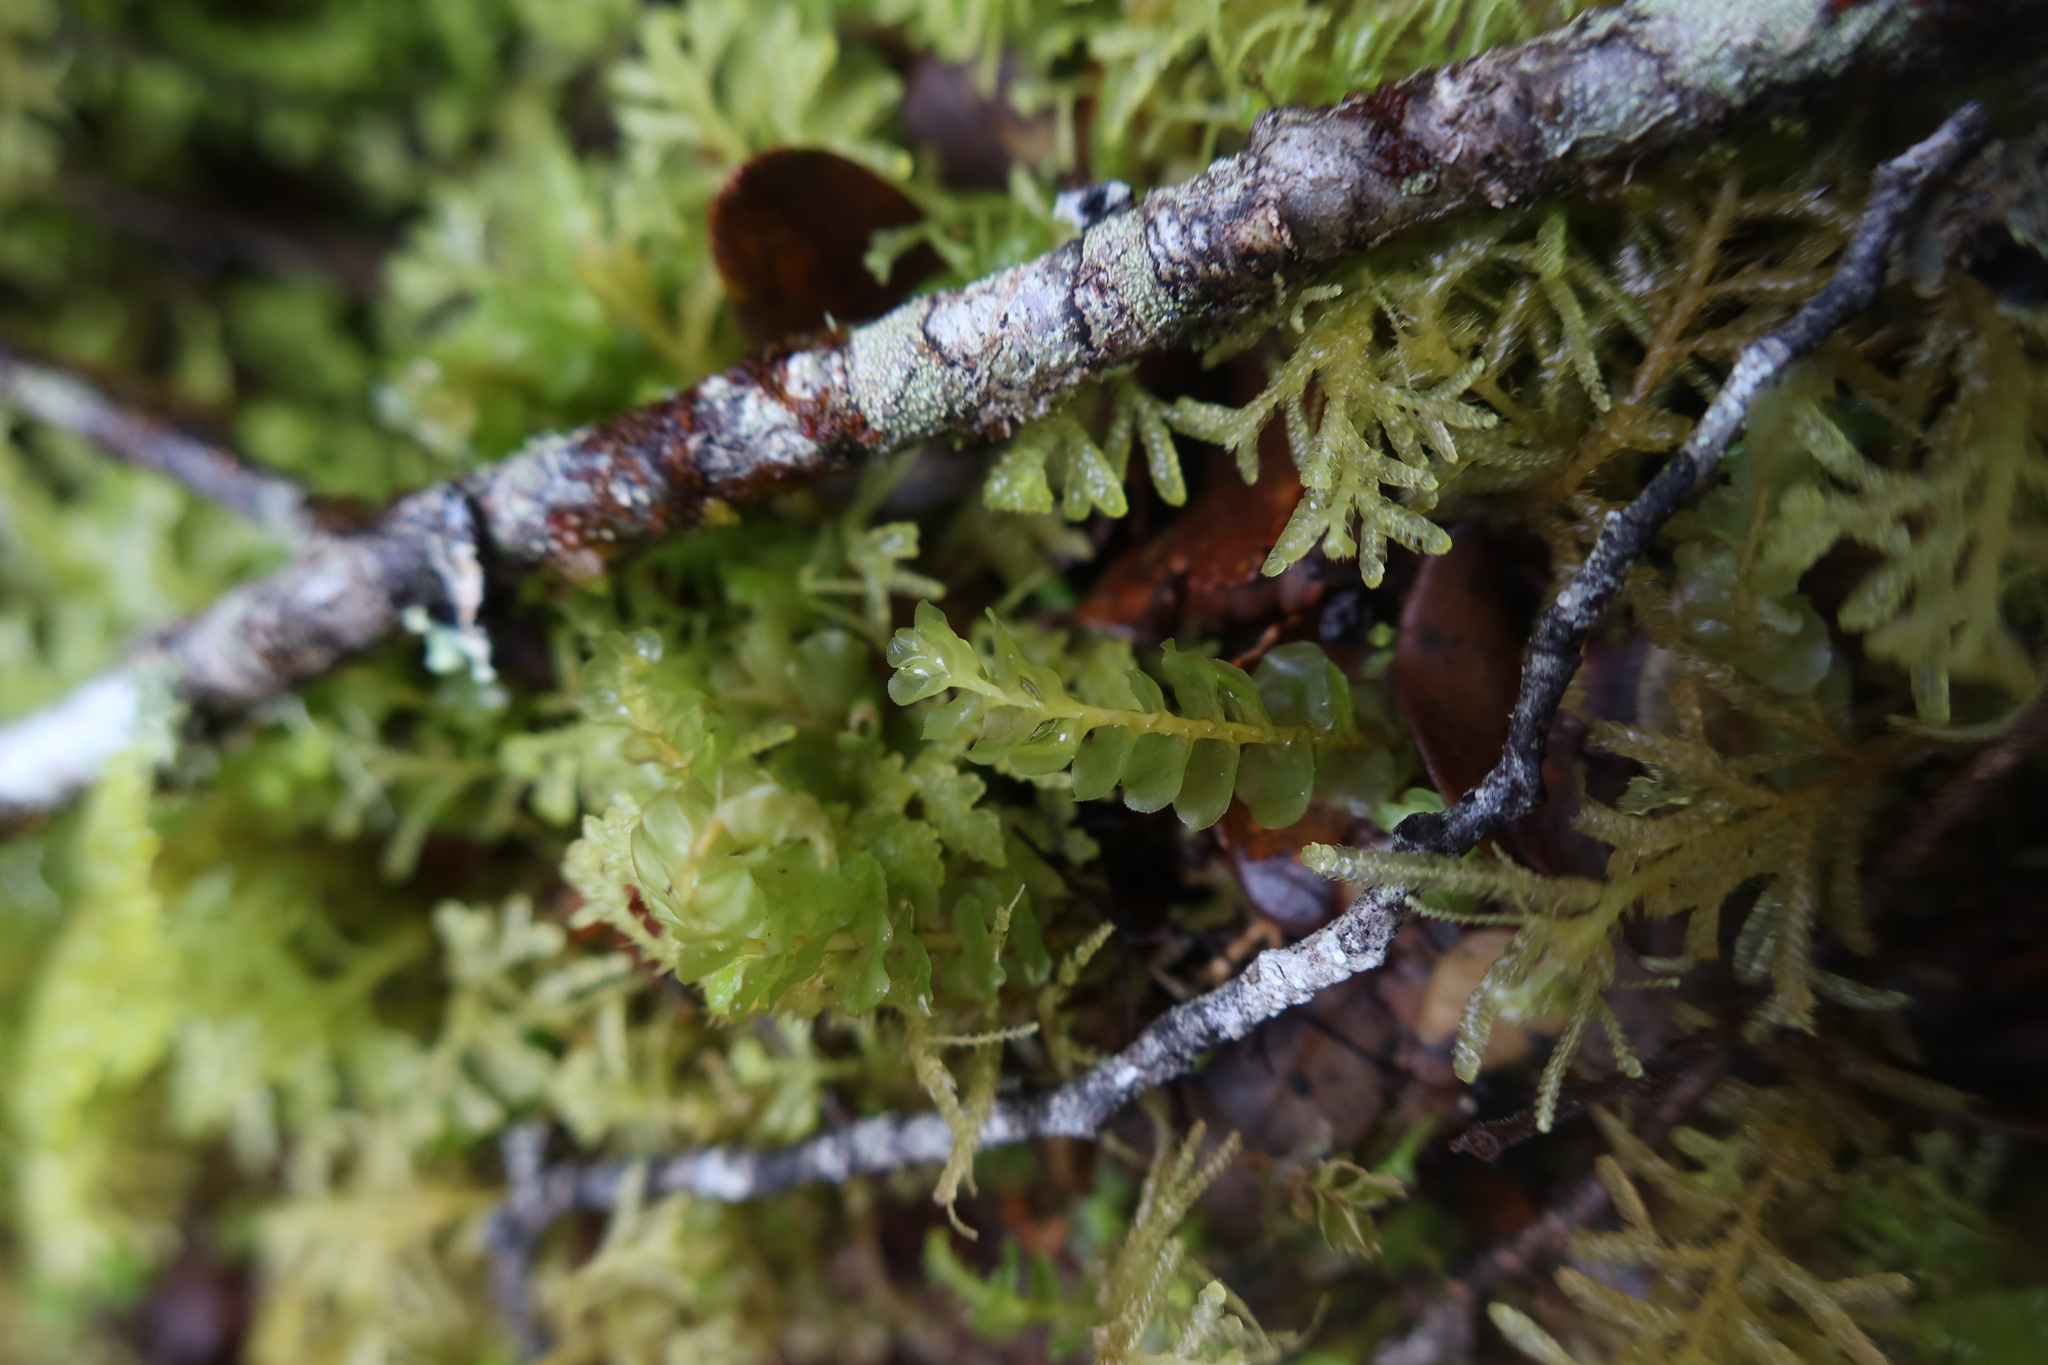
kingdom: Plantae
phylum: Marchantiophyta
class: Jungermanniopsida
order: Jungermanniales
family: Adelanthaceae
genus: Wettsteinia
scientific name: Wettsteinia schusteriana
